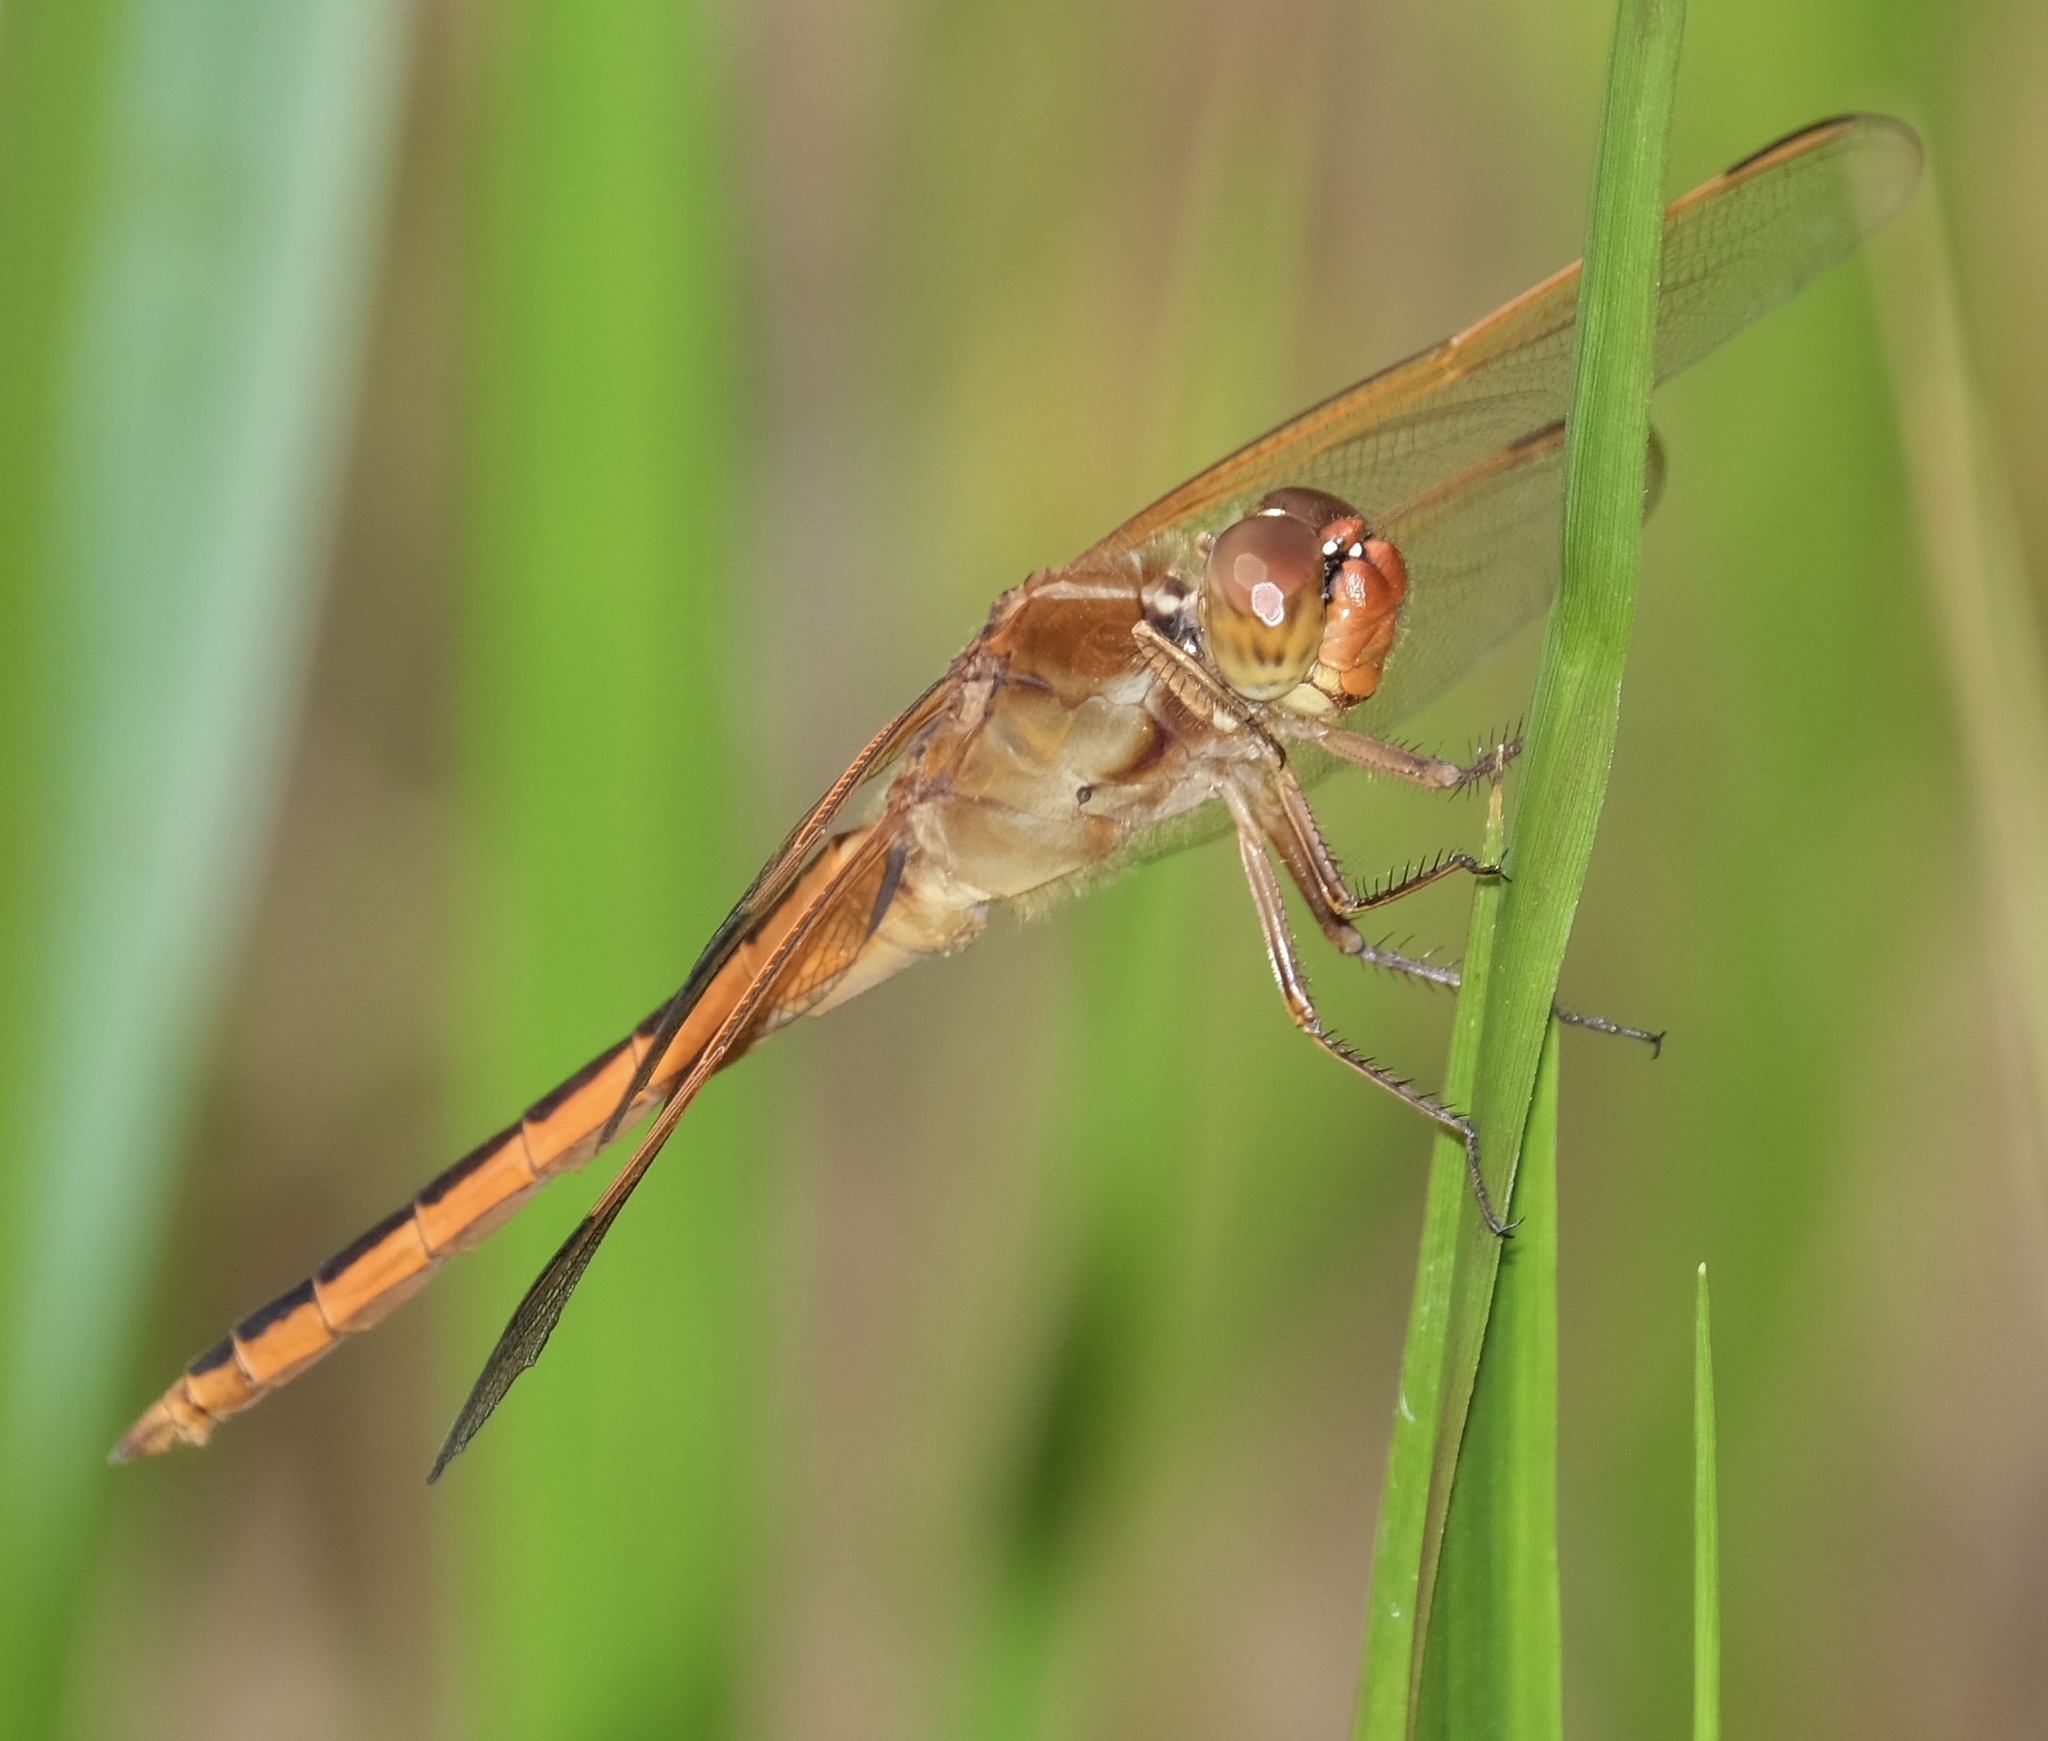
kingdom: Animalia
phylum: Arthropoda
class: Insecta
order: Odonata
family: Libellulidae
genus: Libellula
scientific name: Libellula needhami
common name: Needham's skimmer
